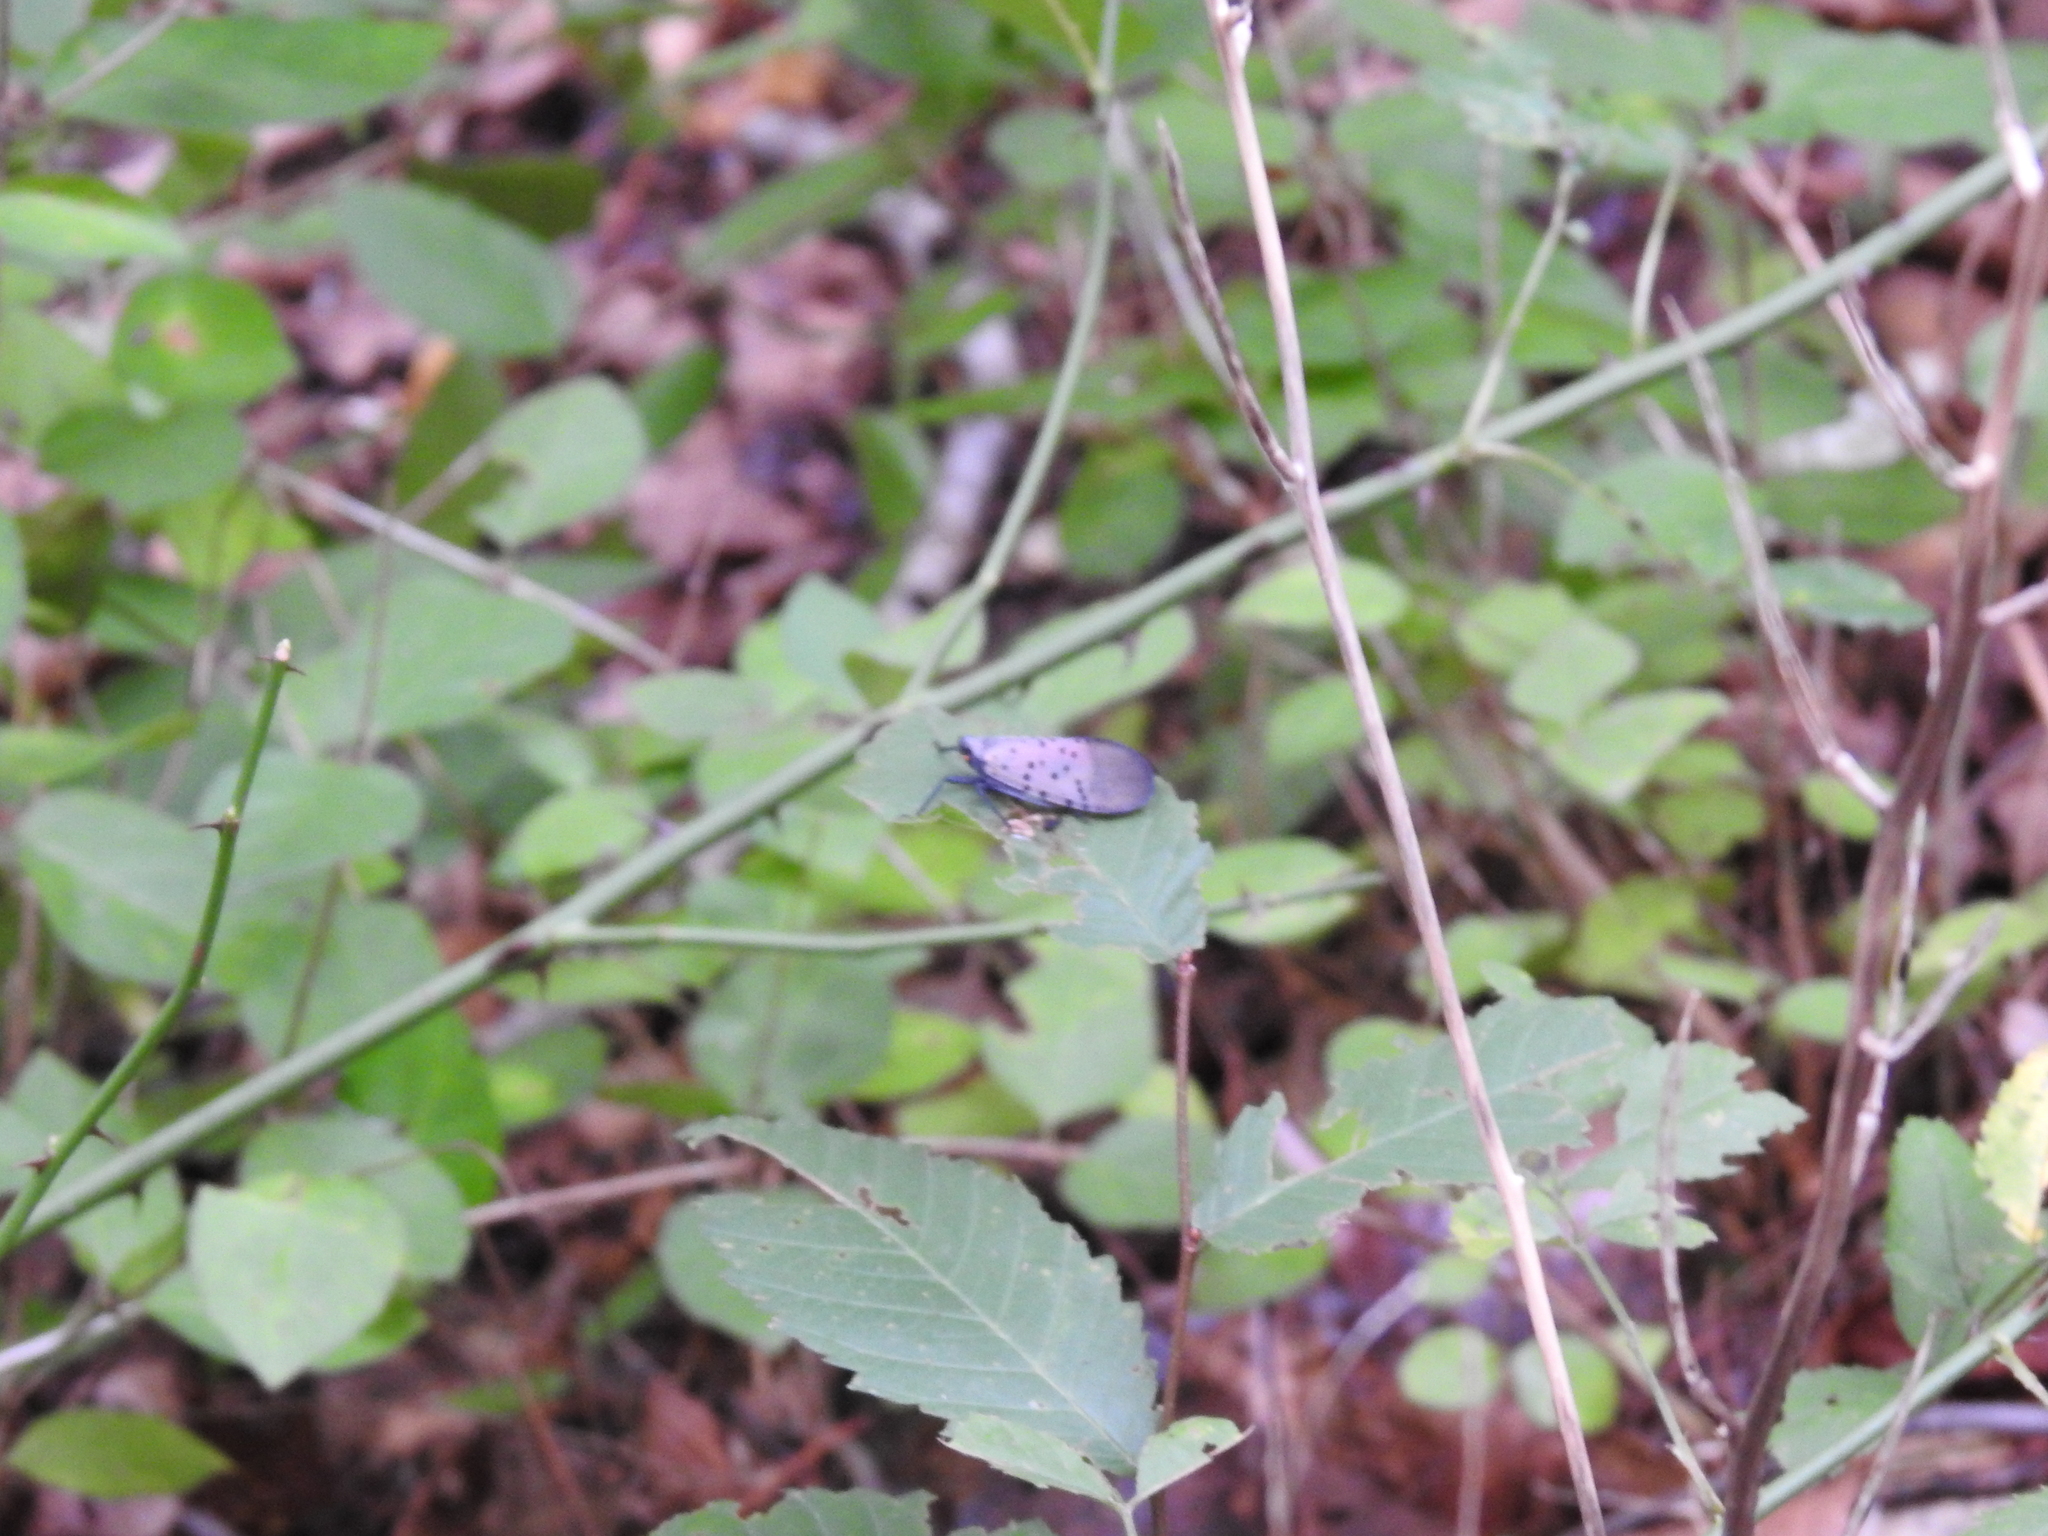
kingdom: Animalia
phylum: Arthropoda
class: Insecta
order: Hemiptera
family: Fulgoridae
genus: Lycorma
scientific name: Lycorma delicatula
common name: Spotted lanternfly
